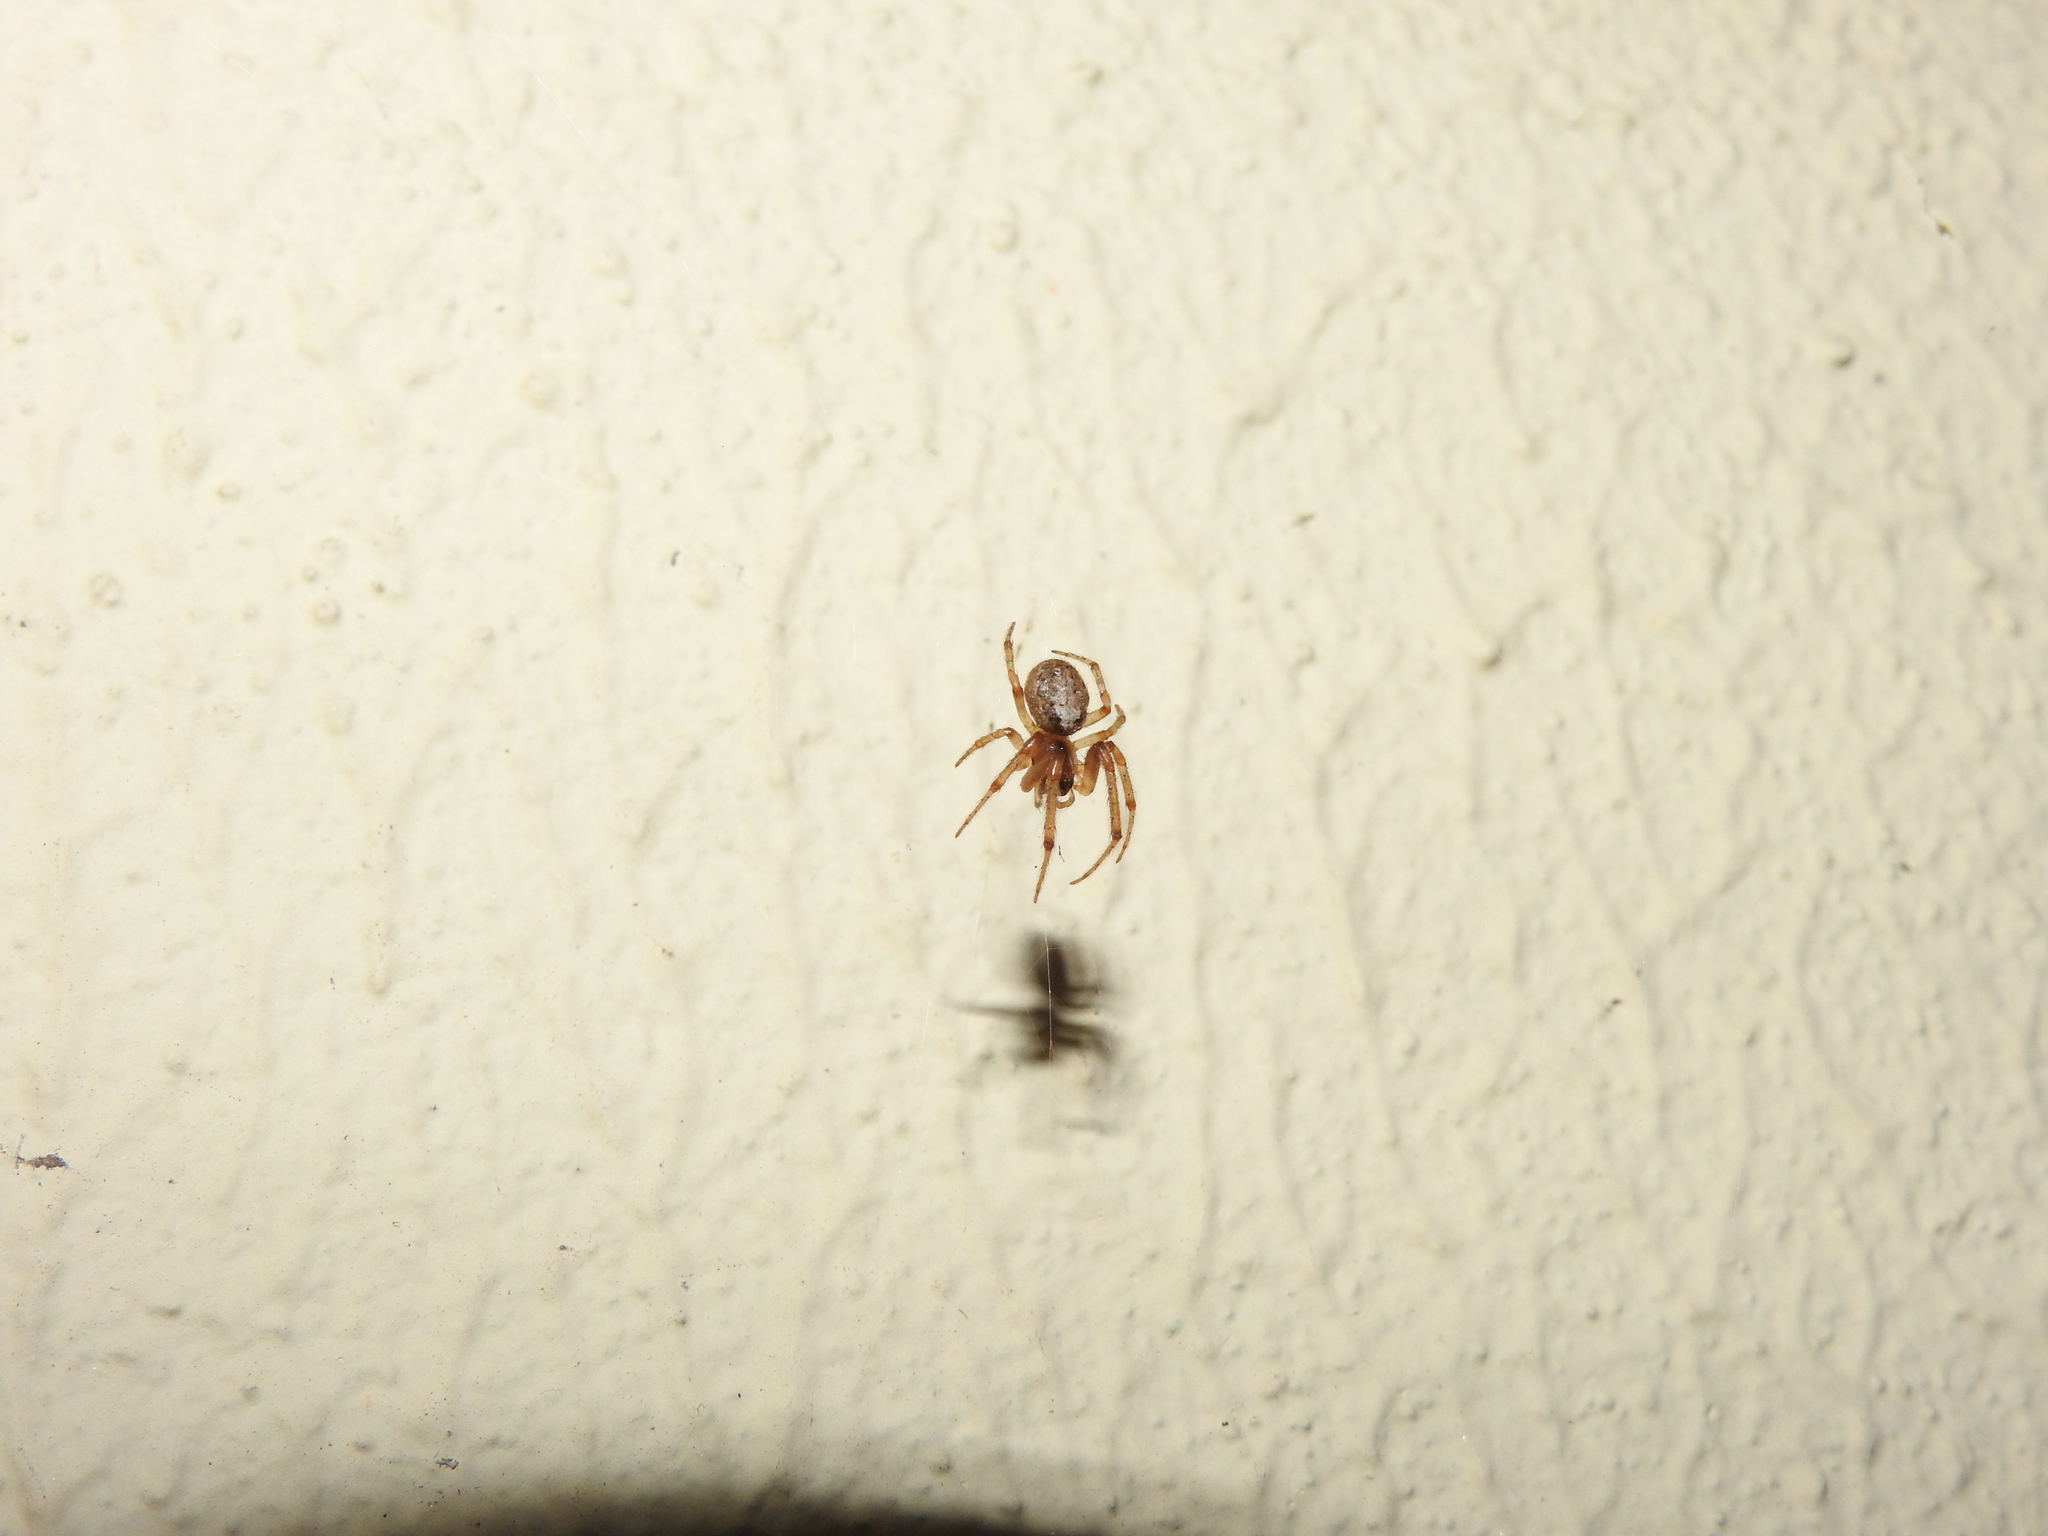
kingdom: Animalia
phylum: Arthropoda
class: Arachnida
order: Araneae
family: Araneidae
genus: Zygiella
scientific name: Zygiella x-notata
